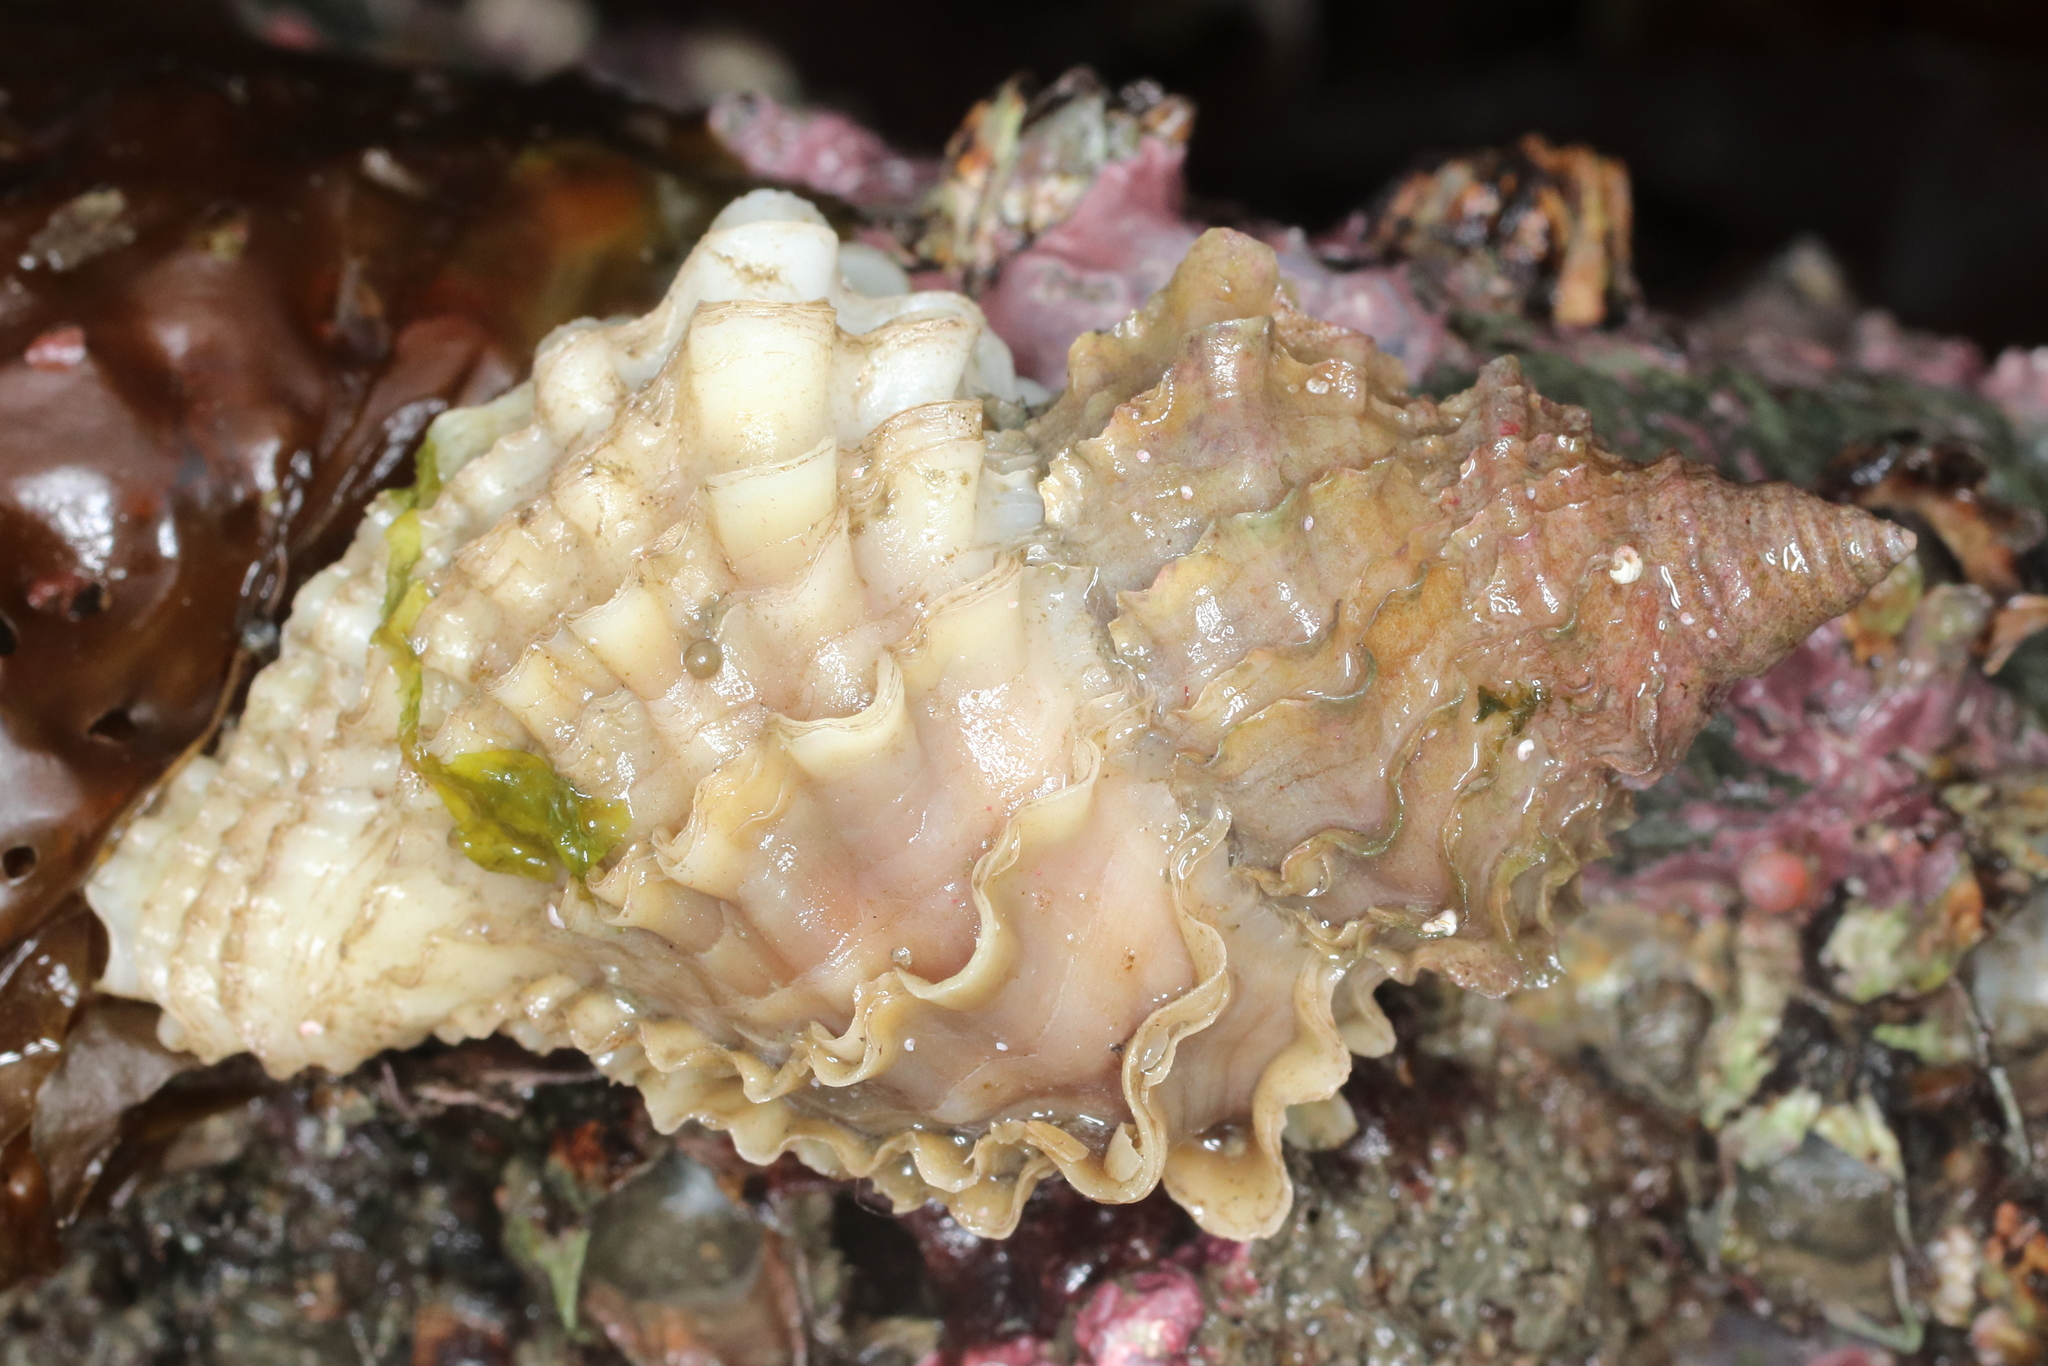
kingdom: Animalia
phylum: Mollusca
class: Gastropoda
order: Neogastropoda
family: Muricidae
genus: Nucella
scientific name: Nucella lamellosa
